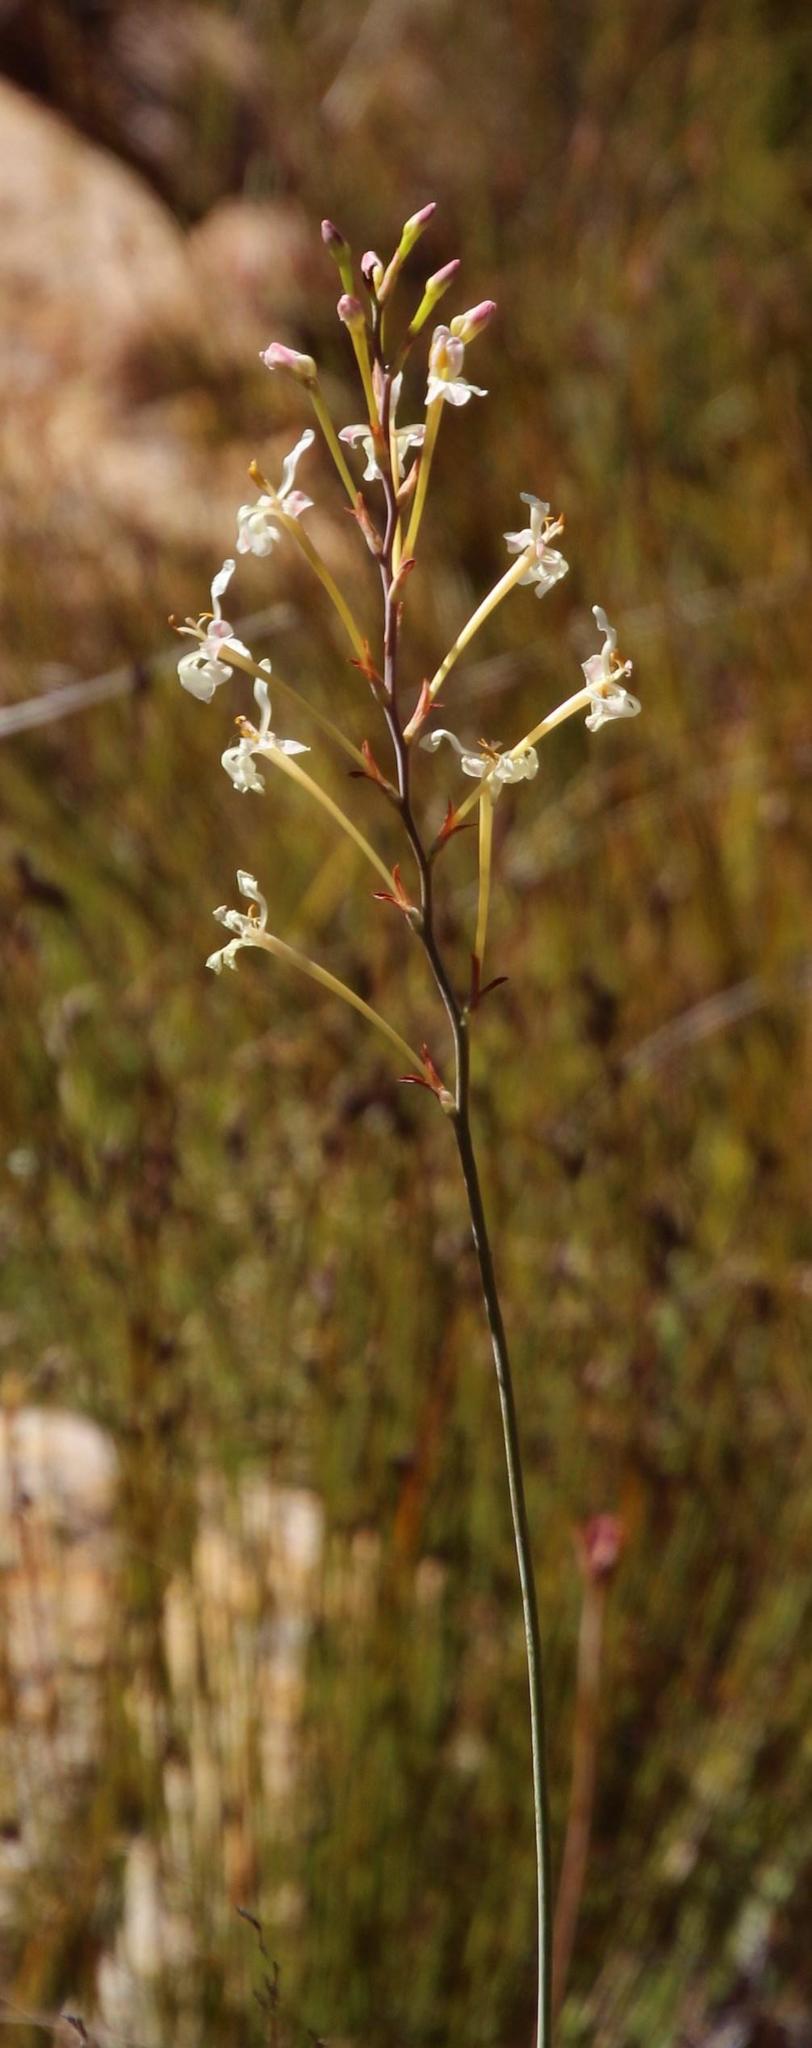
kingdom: Plantae
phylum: Tracheophyta
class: Liliopsida
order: Asparagales
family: Iridaceae
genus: Tritoniopsis
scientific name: Tritoniopsis nervosa
